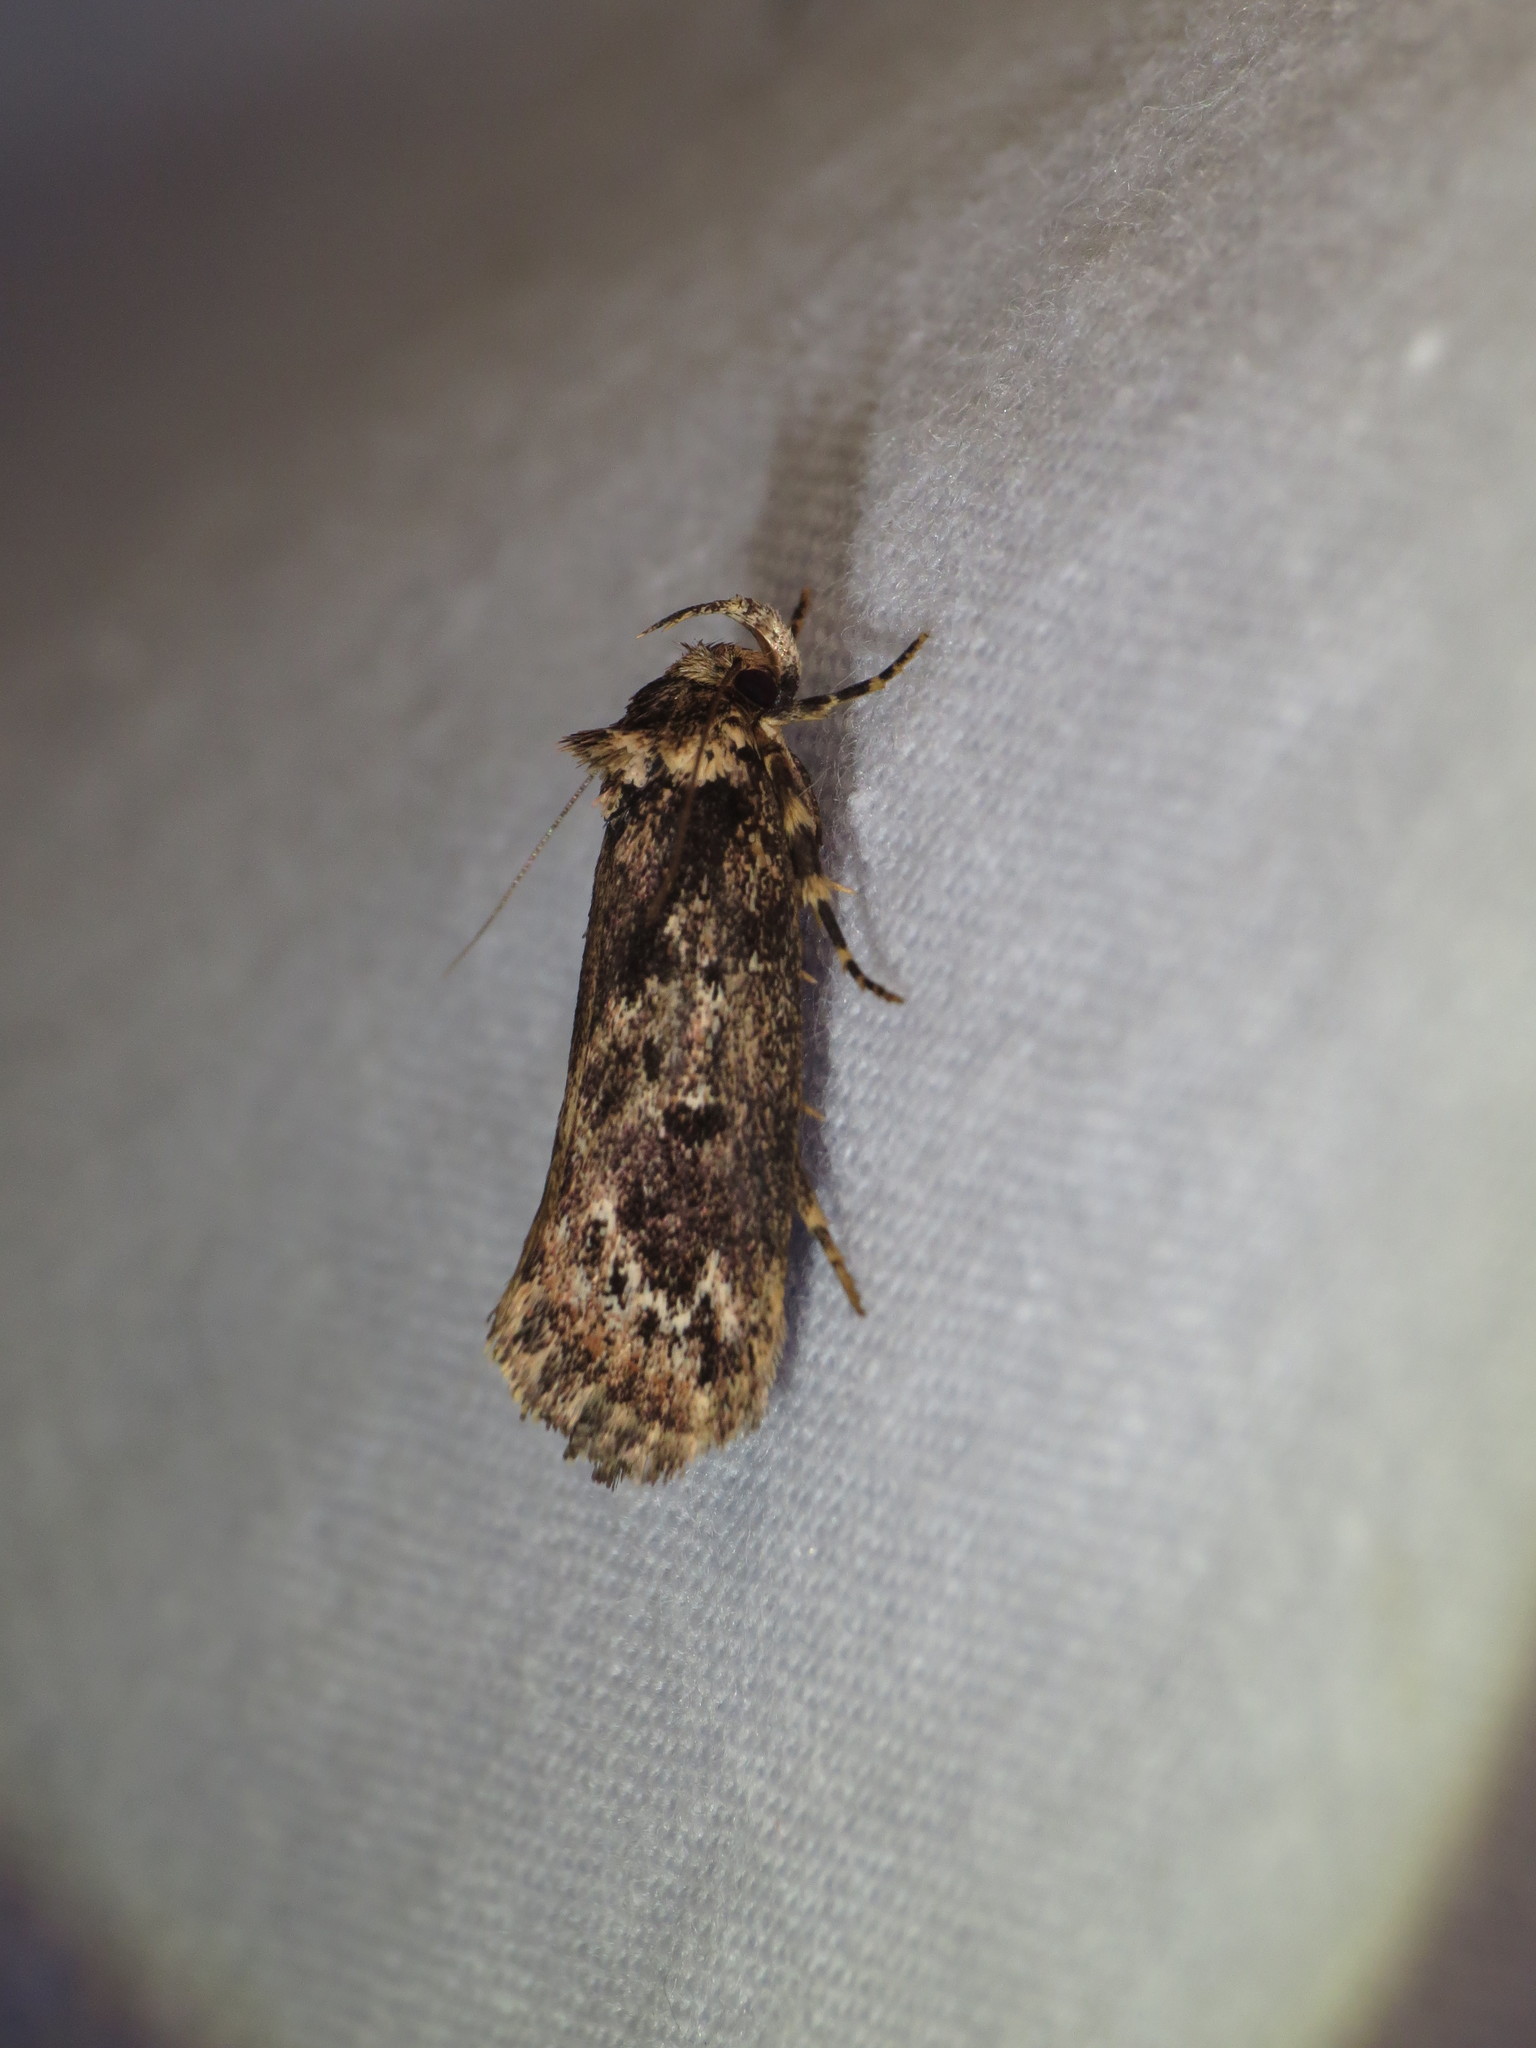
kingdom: Animalia
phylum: Arthropoda
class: Insecta
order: Lepidoptera
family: Oecophoridae
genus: Barea
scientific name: Barea consignatella
